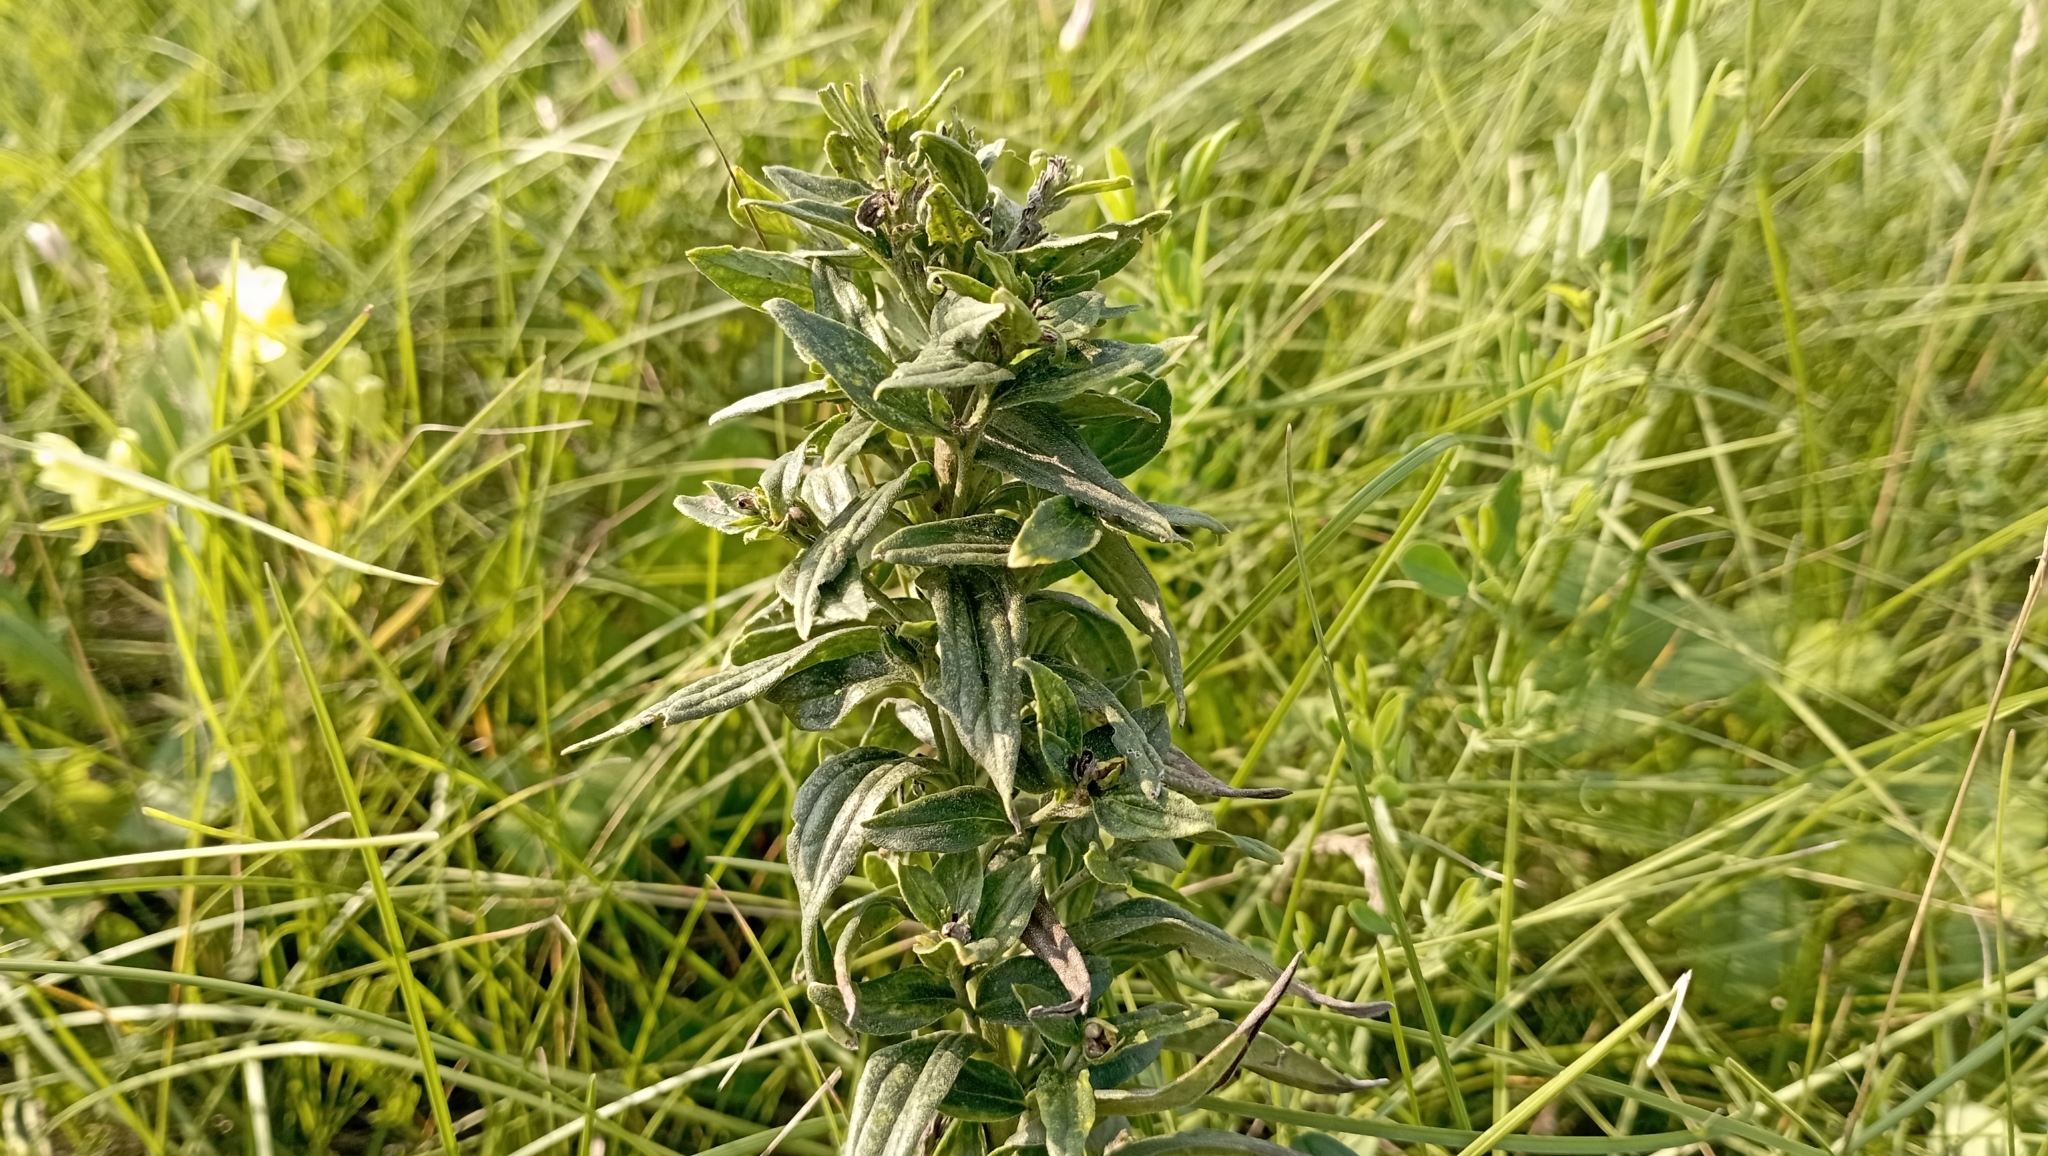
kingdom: Plantae
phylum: Tracheophyta
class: Magnoliopsida
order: Boraginales
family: Boraginaceae
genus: Lithospermum
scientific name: Lithospermum officinale
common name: Common gromwell
